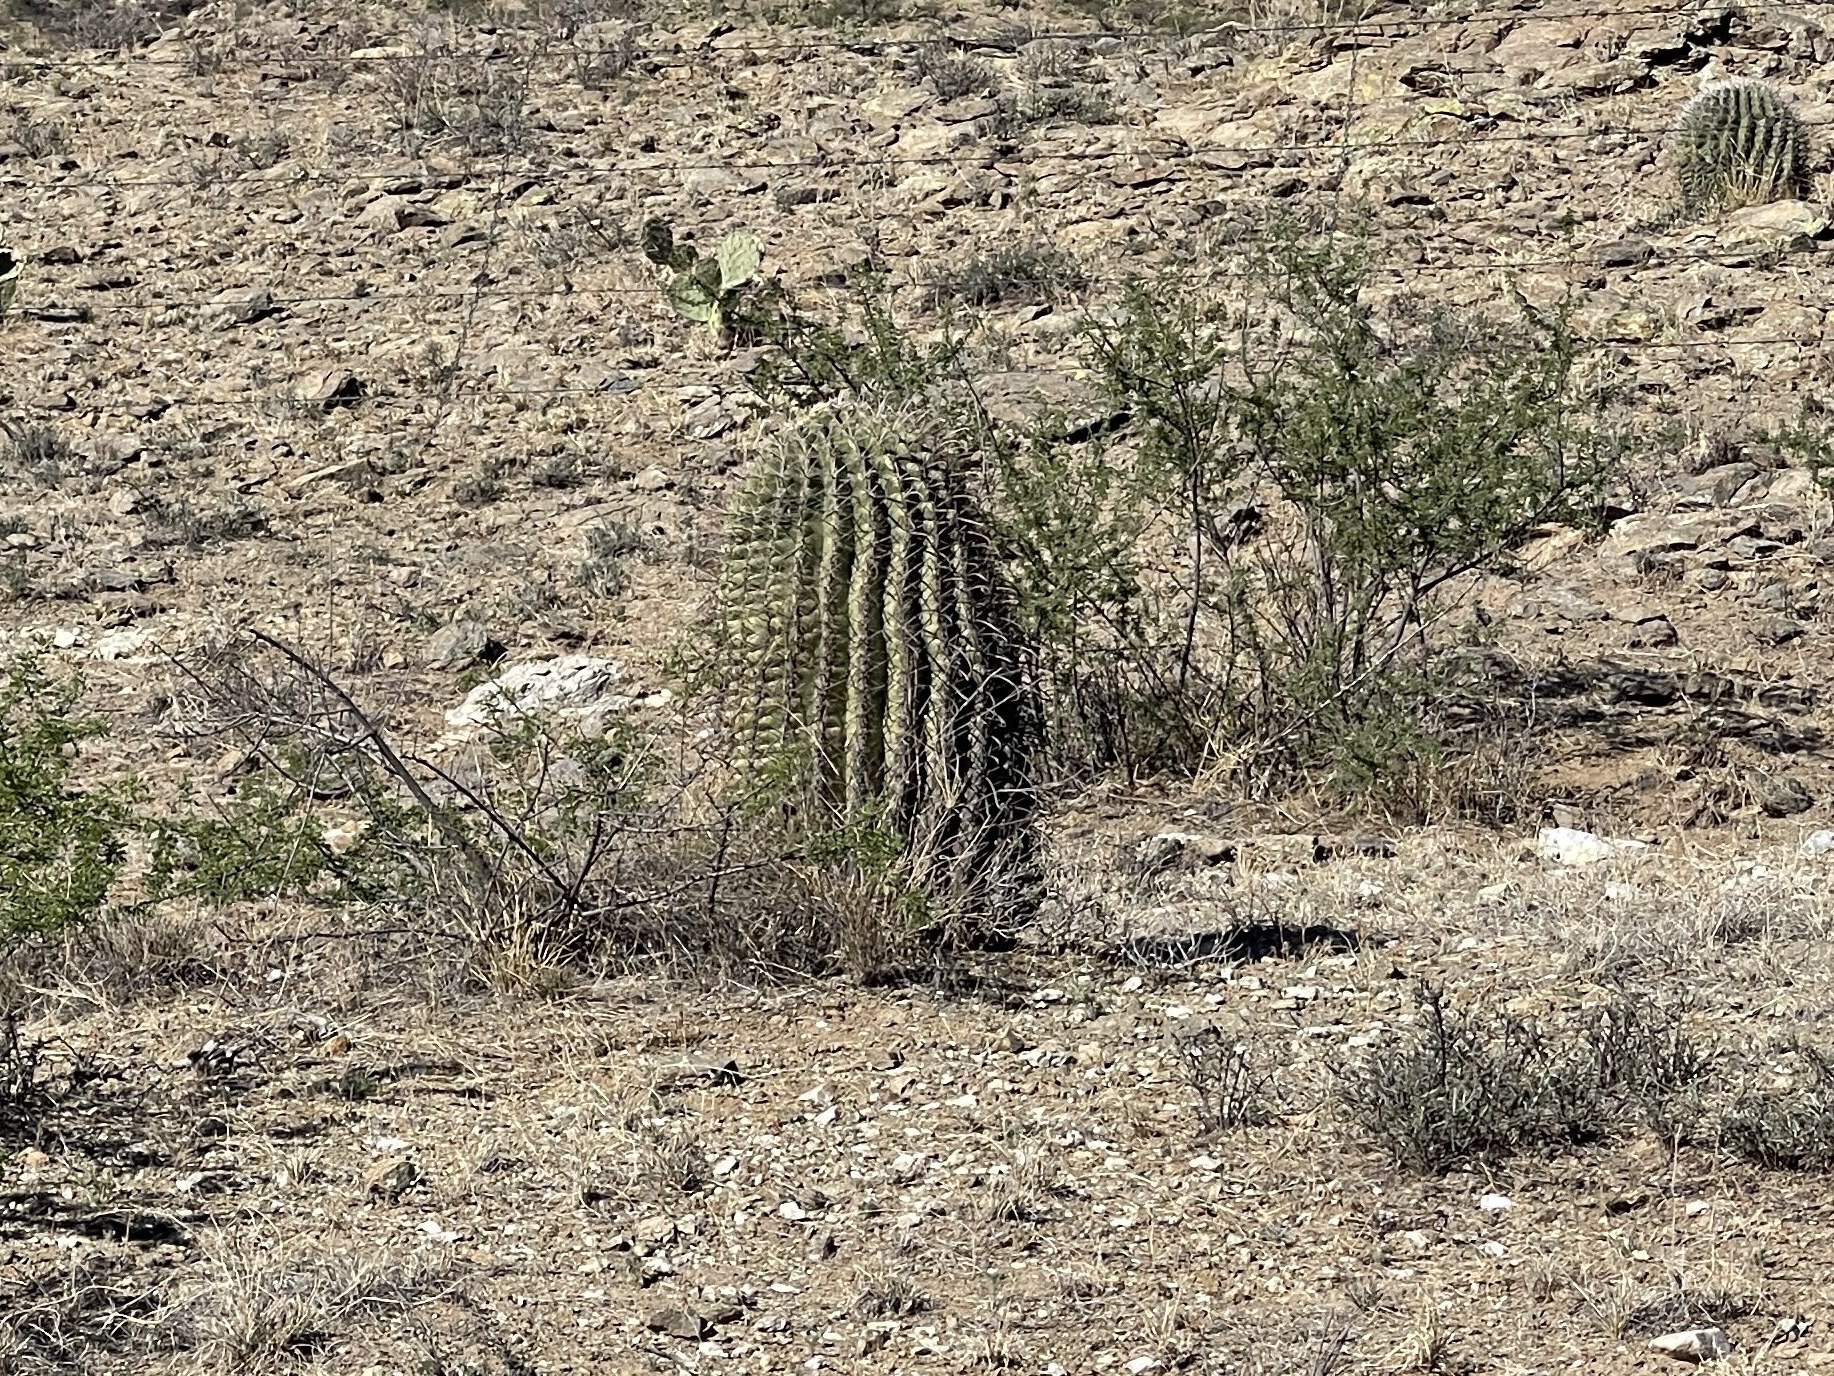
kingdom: Plantae
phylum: Tracheophyta
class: Magnoliopsida
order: Caryophyllales
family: Cactaceae
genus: Ferocactus
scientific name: Ferocactus wislizeni
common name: Candy barrel cactus
